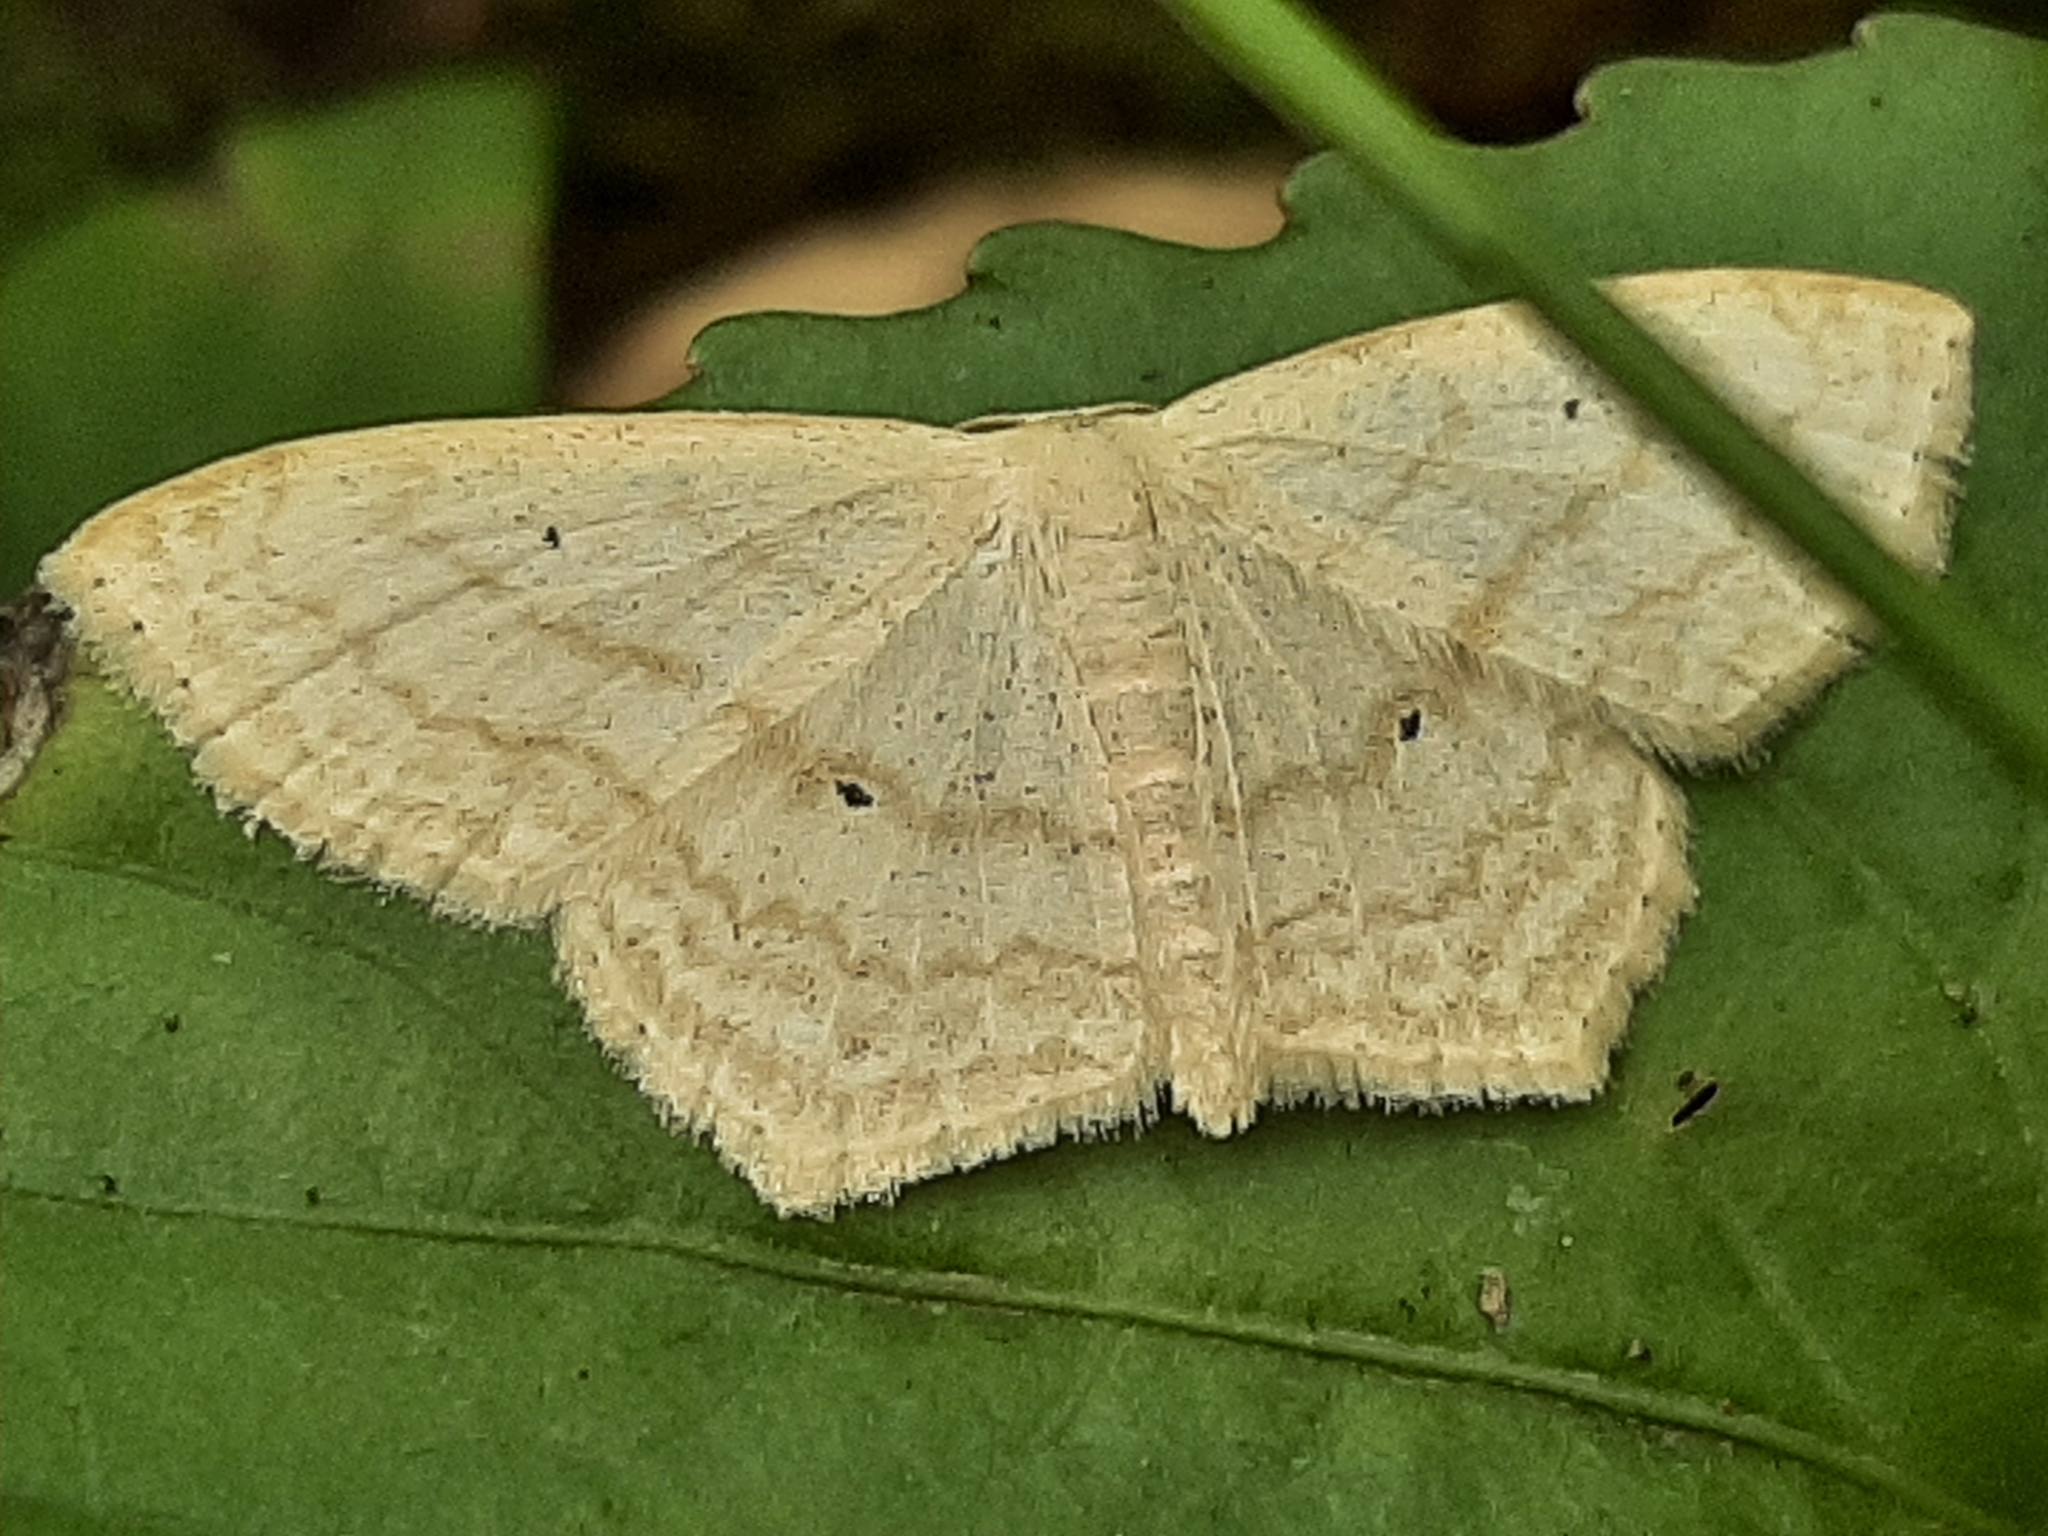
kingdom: Animalia
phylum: Arthropoda
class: Insecta
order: Lepidoptera
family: Geometridae
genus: Scopula
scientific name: Scopula limboundata
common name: Large lace border
